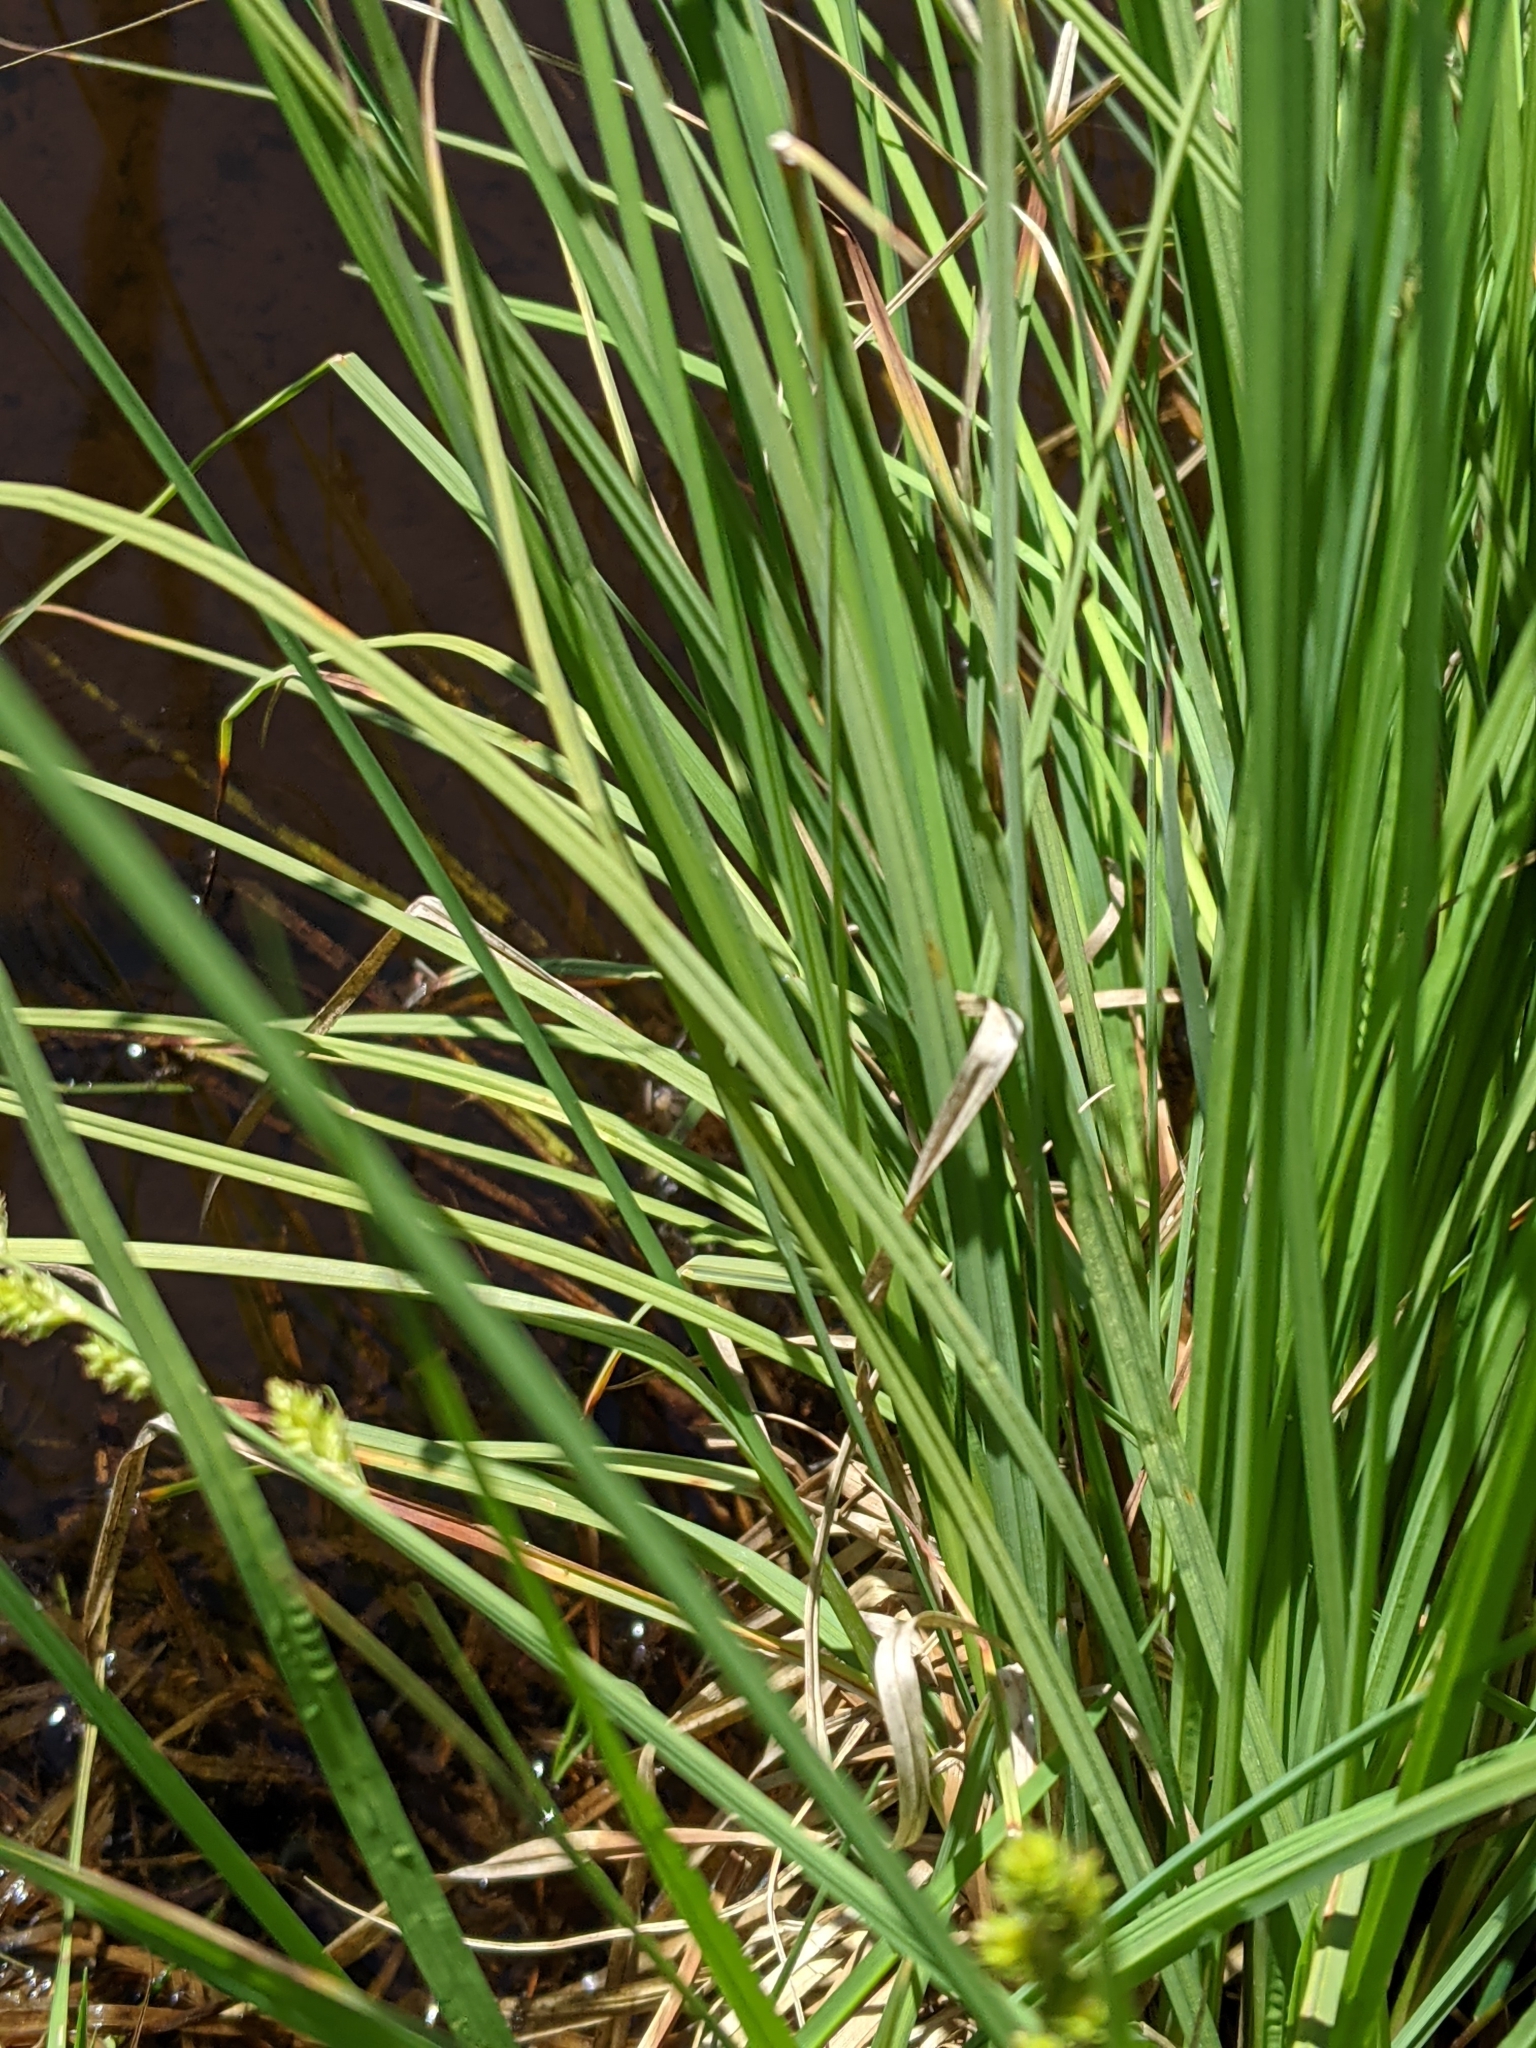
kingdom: Plantae
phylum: Tracheophyta
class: Liliopsida
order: Poales
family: Cyperaceae
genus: Carex
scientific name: Carex canescens
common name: White sedge
